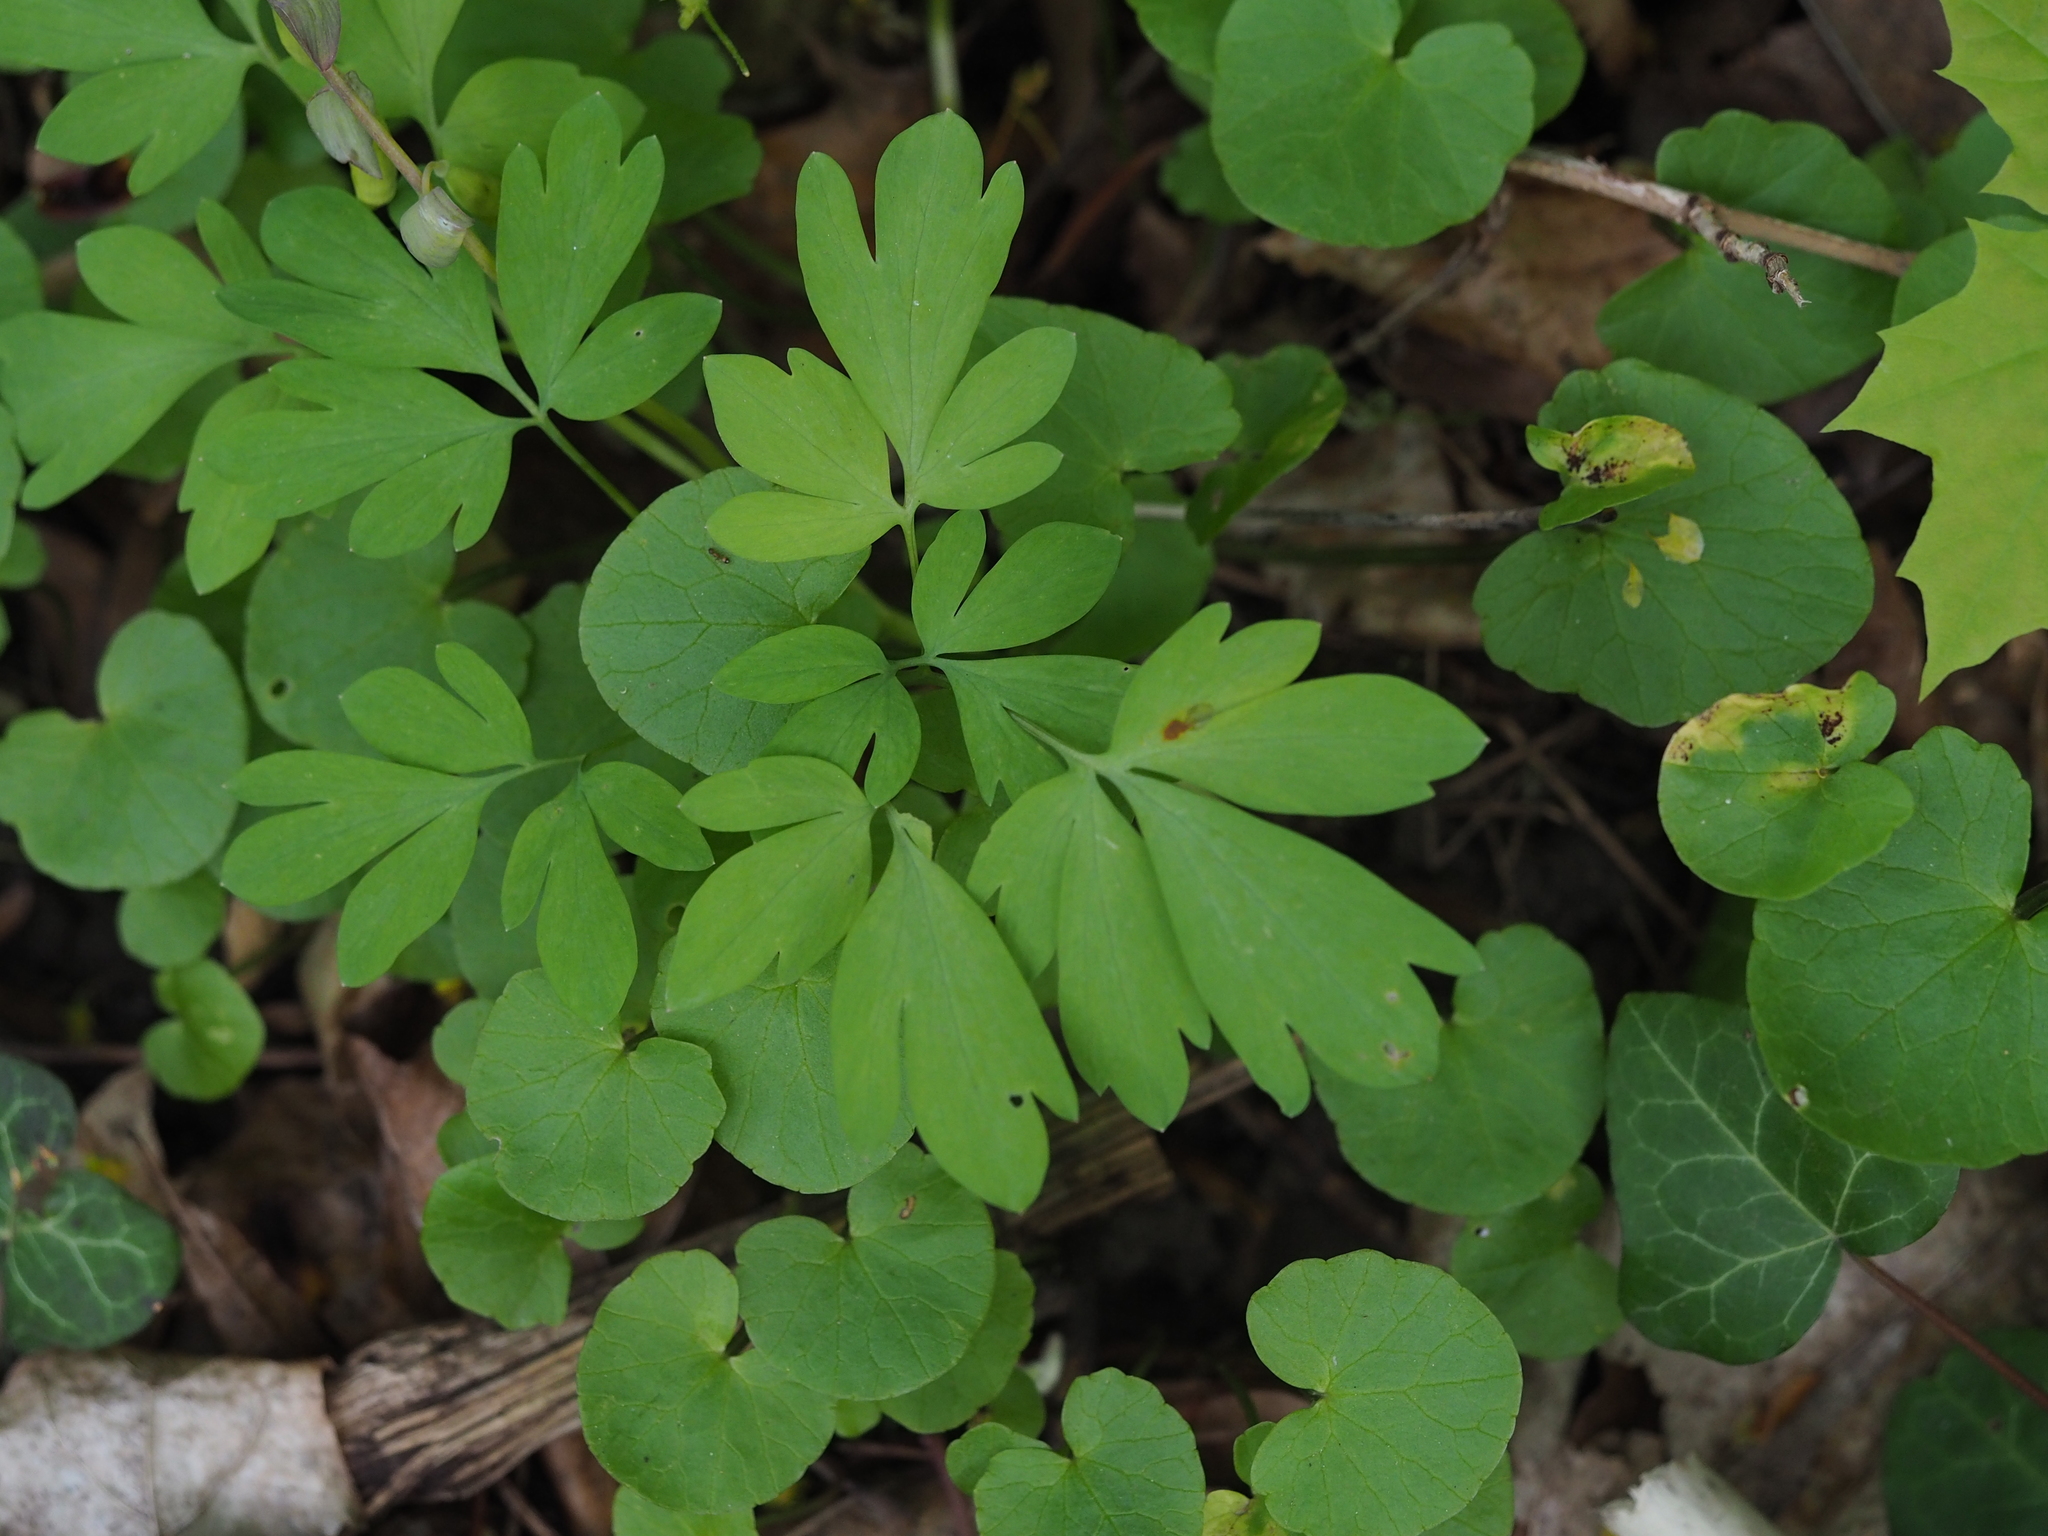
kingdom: Plantae
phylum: Tracheophyta
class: Magnoliopsida
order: Ranunculales
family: Papaveraceae
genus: Corydalis
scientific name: Corydalis cava
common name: Hollowroot
